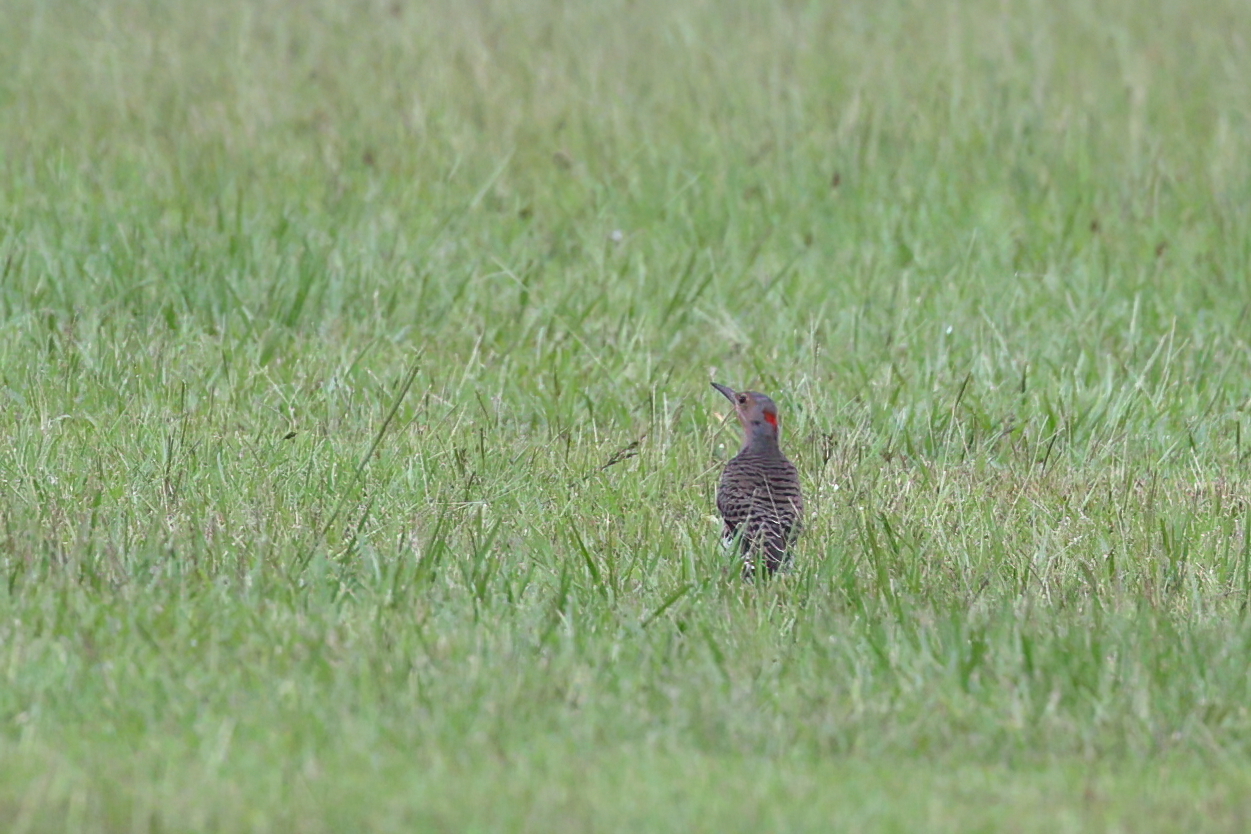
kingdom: Animalia
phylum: Chordata
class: Aves
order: Piciformes
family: Picidae
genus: Colaptes
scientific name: Colaptes auratus
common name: Northern flicker
